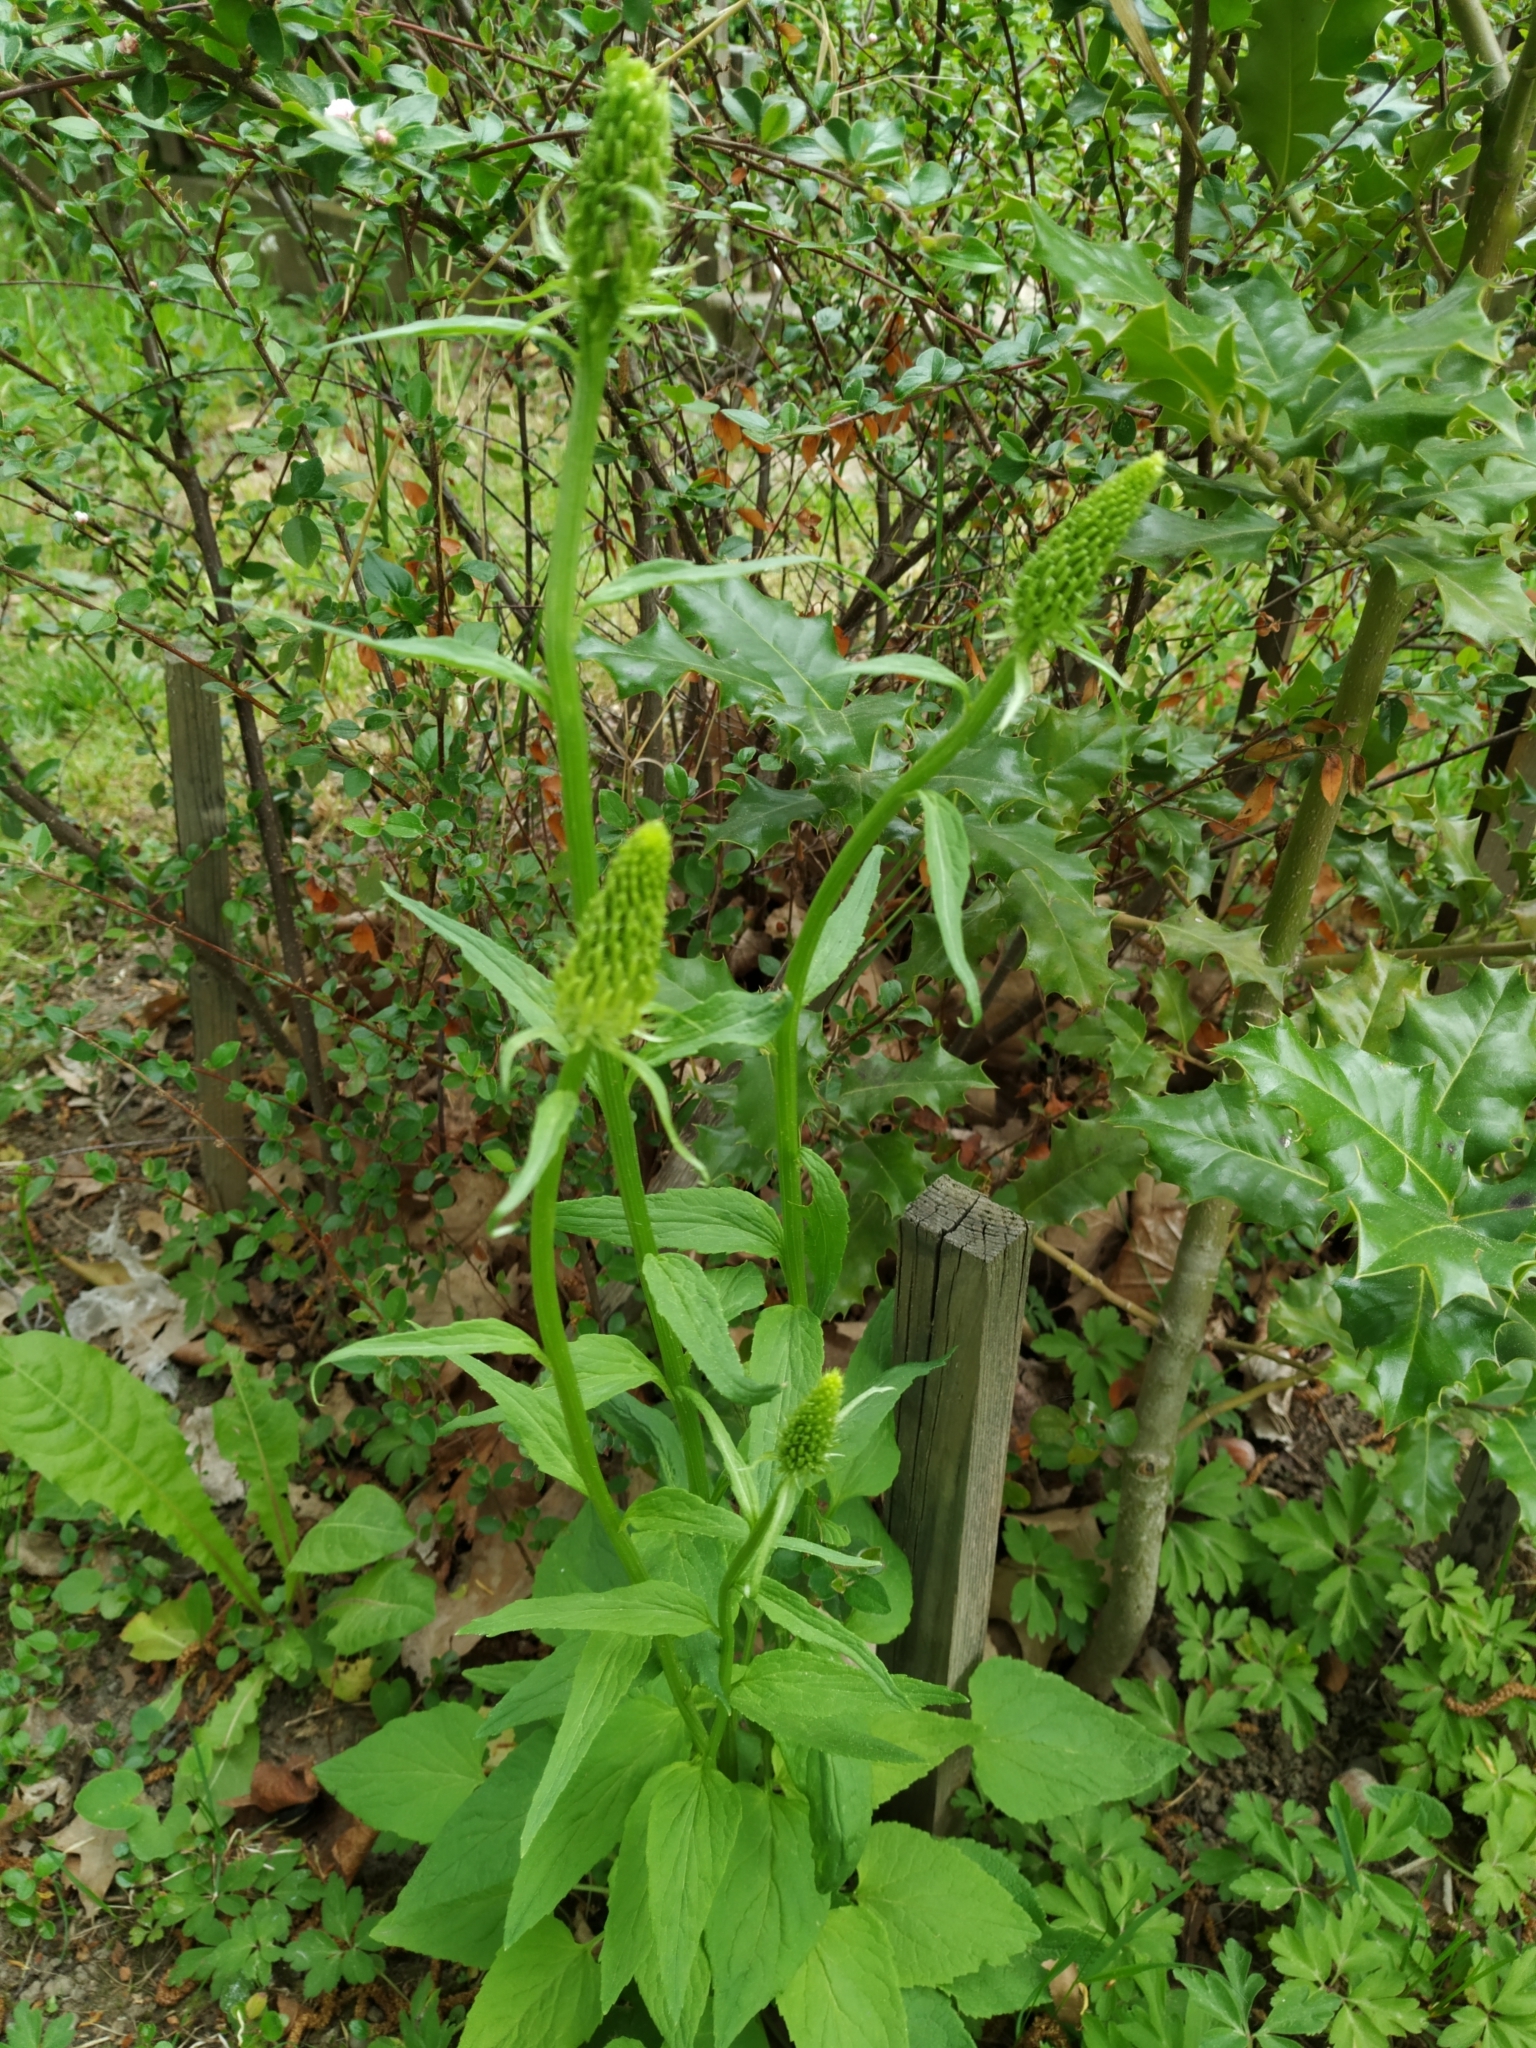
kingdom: Plantae
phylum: Tracheophyta
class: Magnoliopsida
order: Asterales
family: Campanulaceae
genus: Phyteuma
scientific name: Phyteuma spicatum
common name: Spiked rampion
